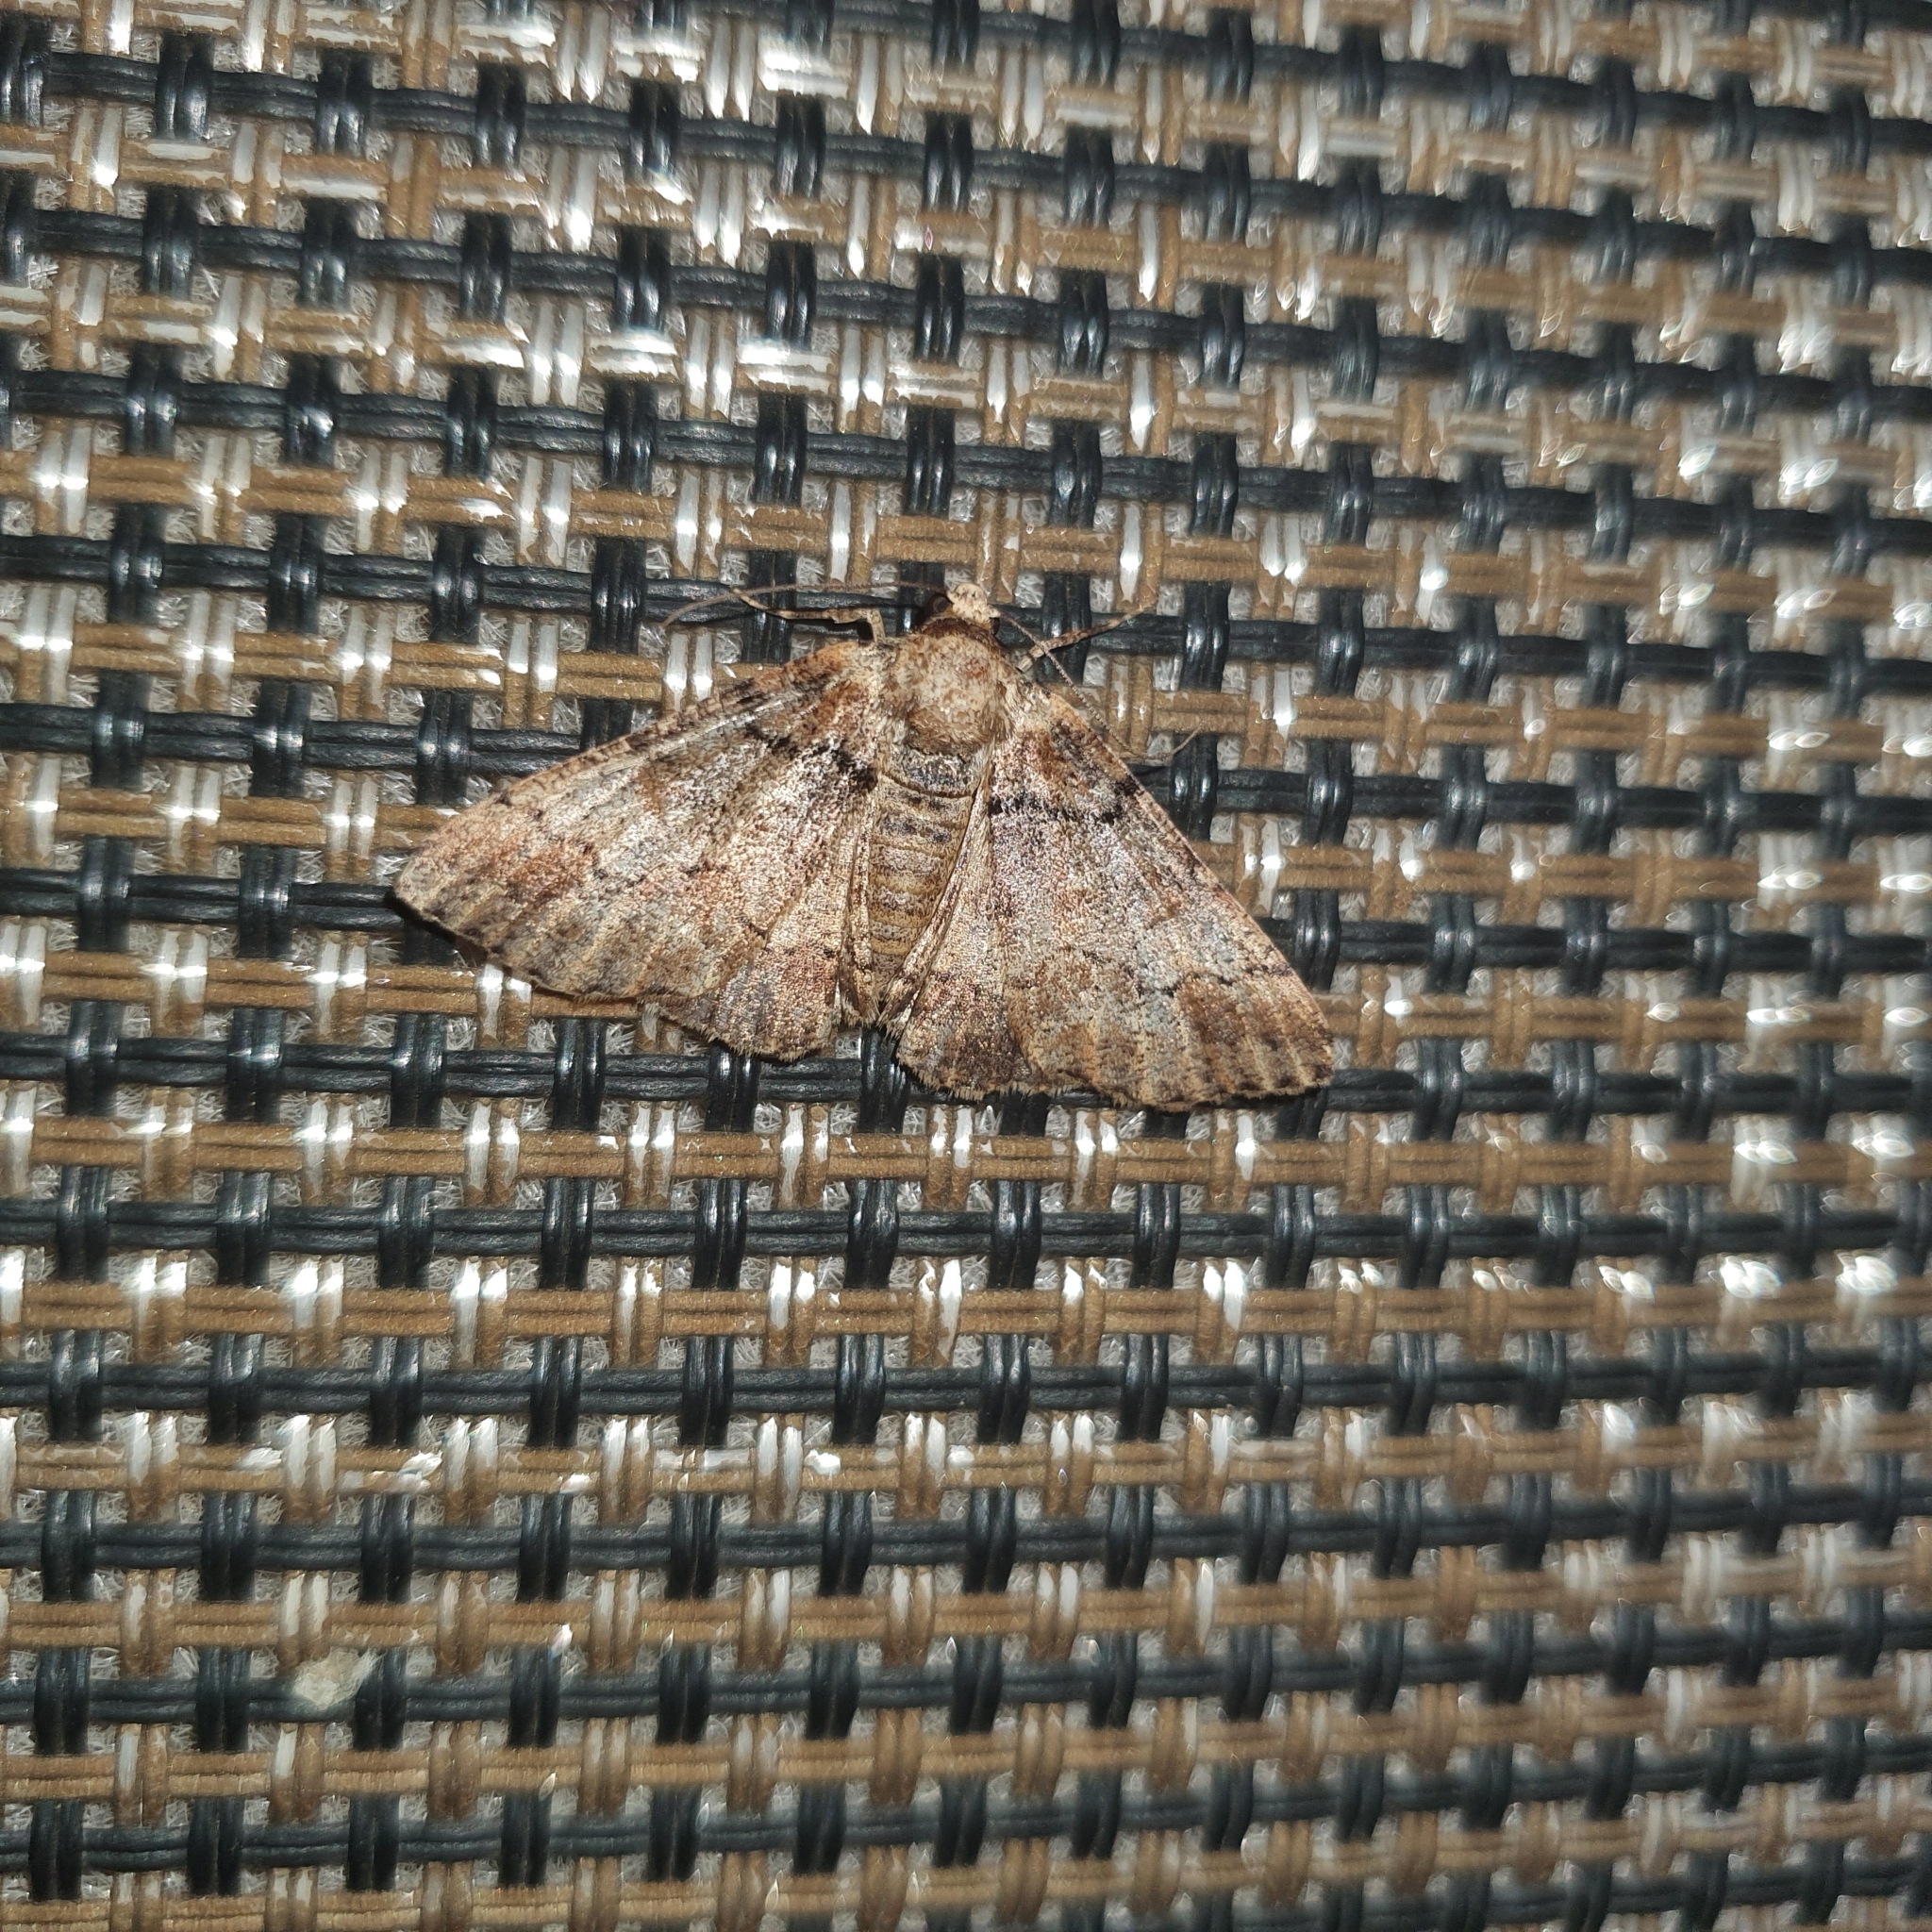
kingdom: Animalia
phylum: Arthropoda
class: Insecta
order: Lepidoptera
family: Geometridae
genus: Cryphaea
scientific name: Cryphaea xylina
